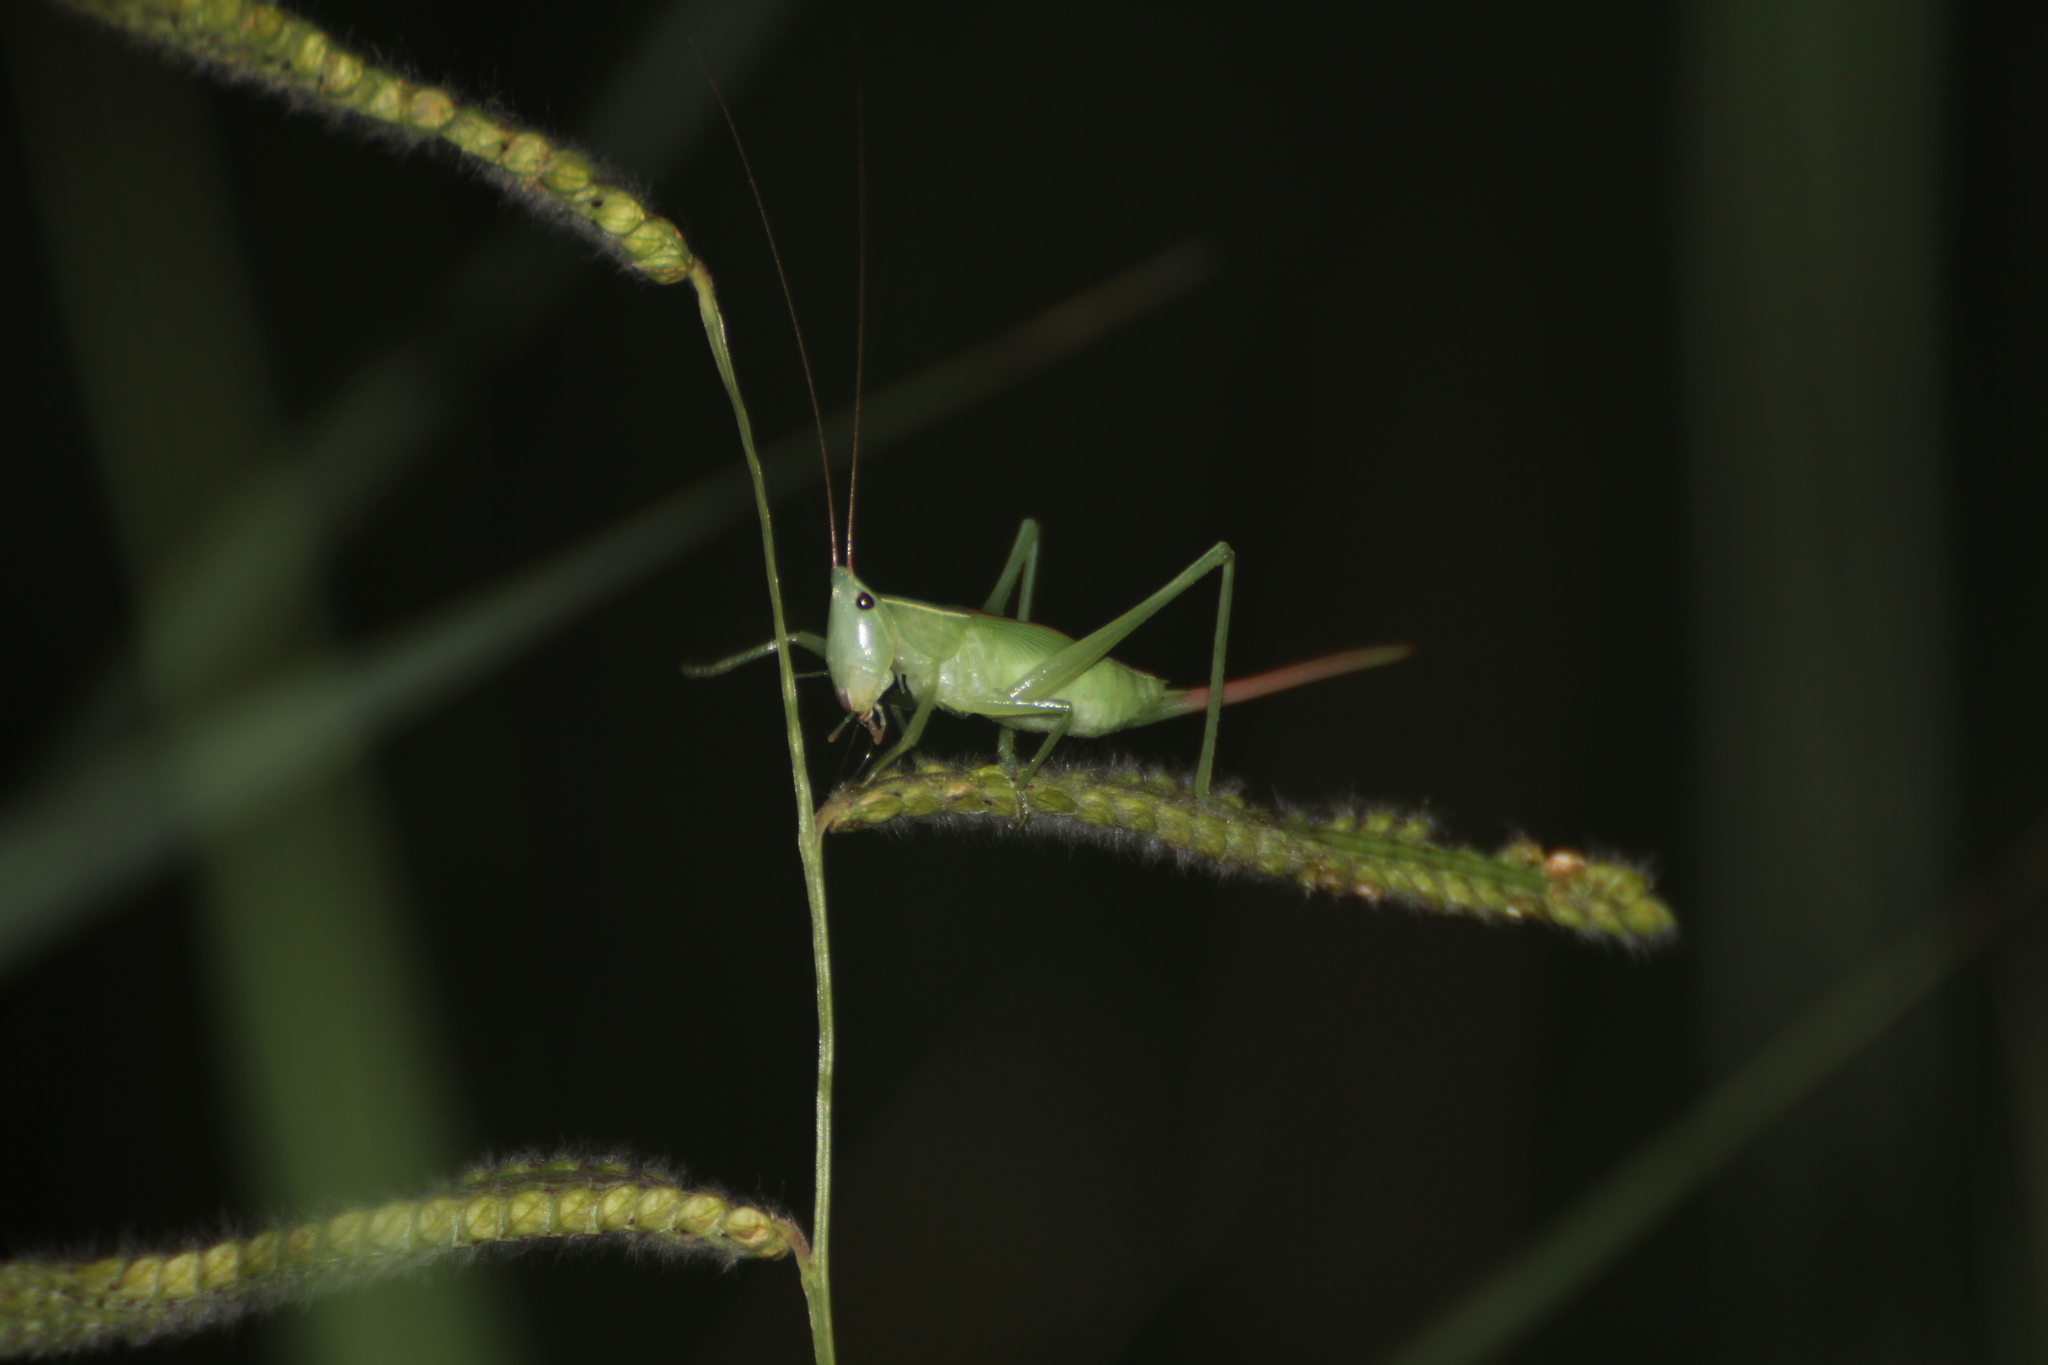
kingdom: Animalia
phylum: Arthropoda
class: Insecta
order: Orthoptera
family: Tettigoniidae
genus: Ruspolia
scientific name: Ruspolia nitidula
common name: Large conehead
